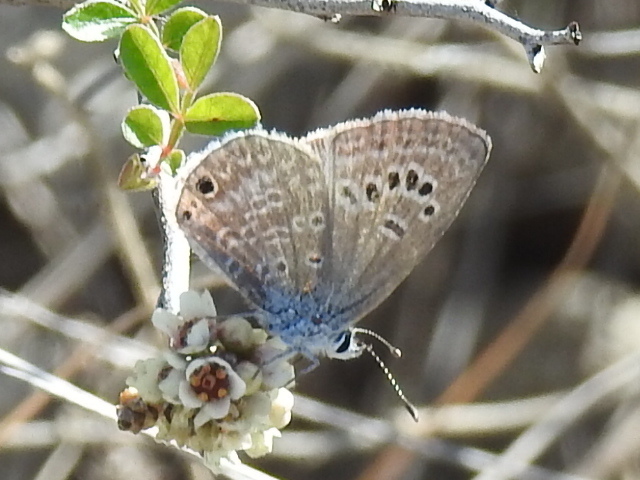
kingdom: Animalia
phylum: Arthropoda
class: Insecta
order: Lepidoptera
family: Lycaenidae
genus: Echinargus
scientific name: Echinargus isola
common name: Reakirt's blue
